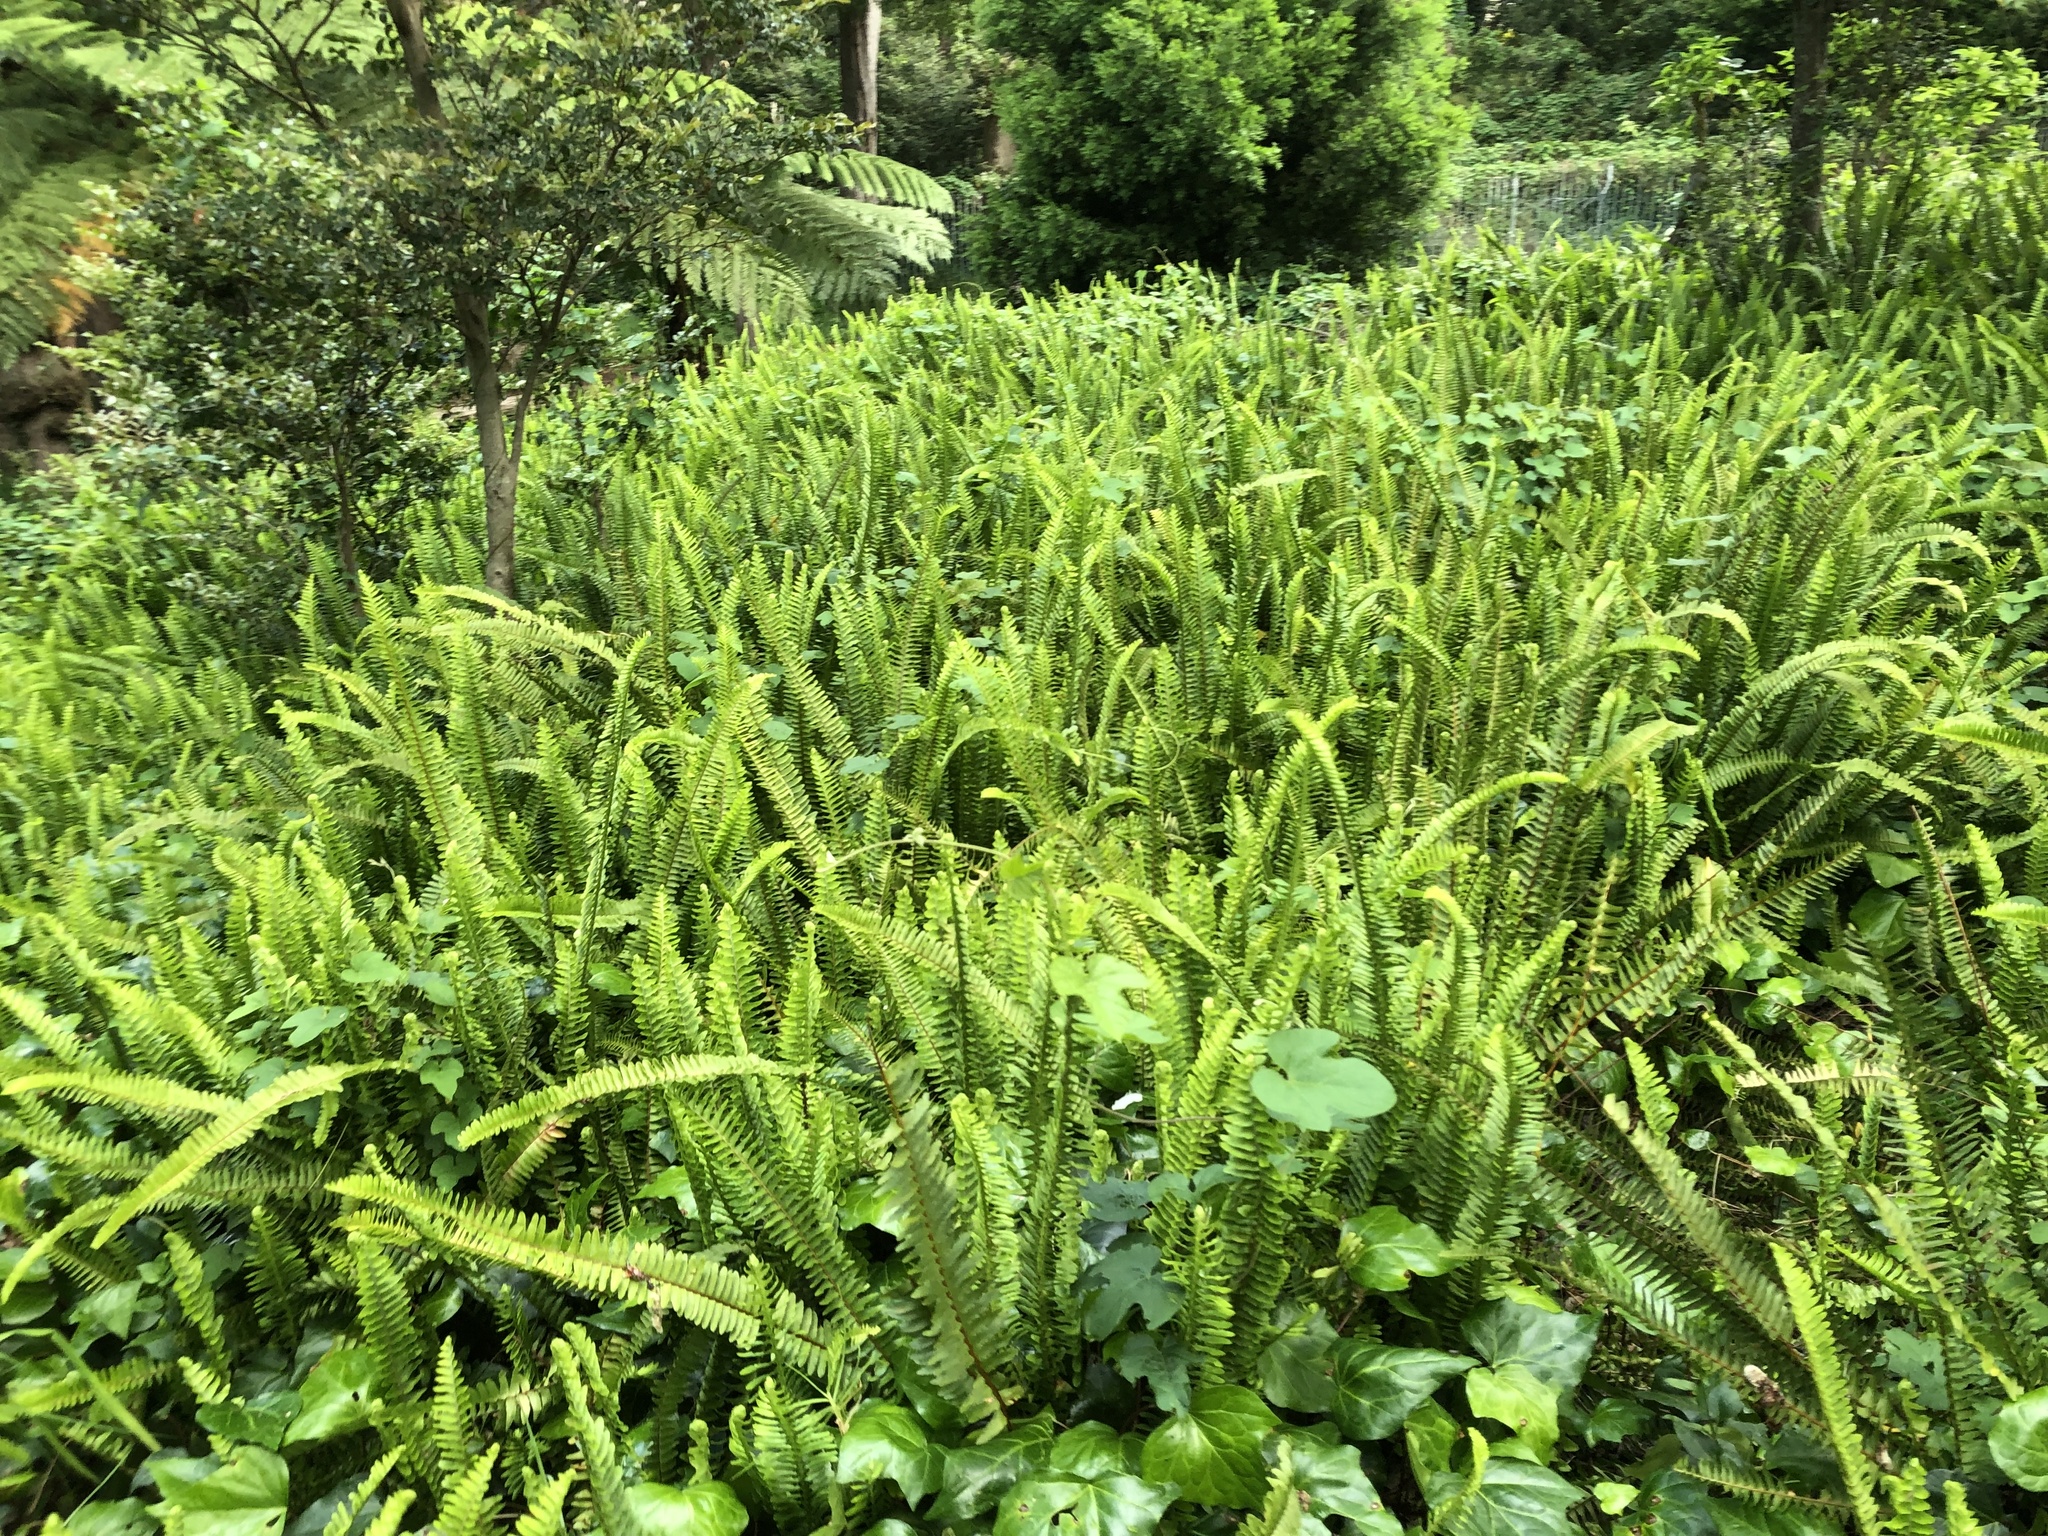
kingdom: Plantae
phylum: Tracheophyta
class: Polypodiopsida
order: Polypodiales
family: Nephrolepidaceae
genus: Nephrolepis
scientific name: Nephrolepis cordifolia
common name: Narrow swordfern
